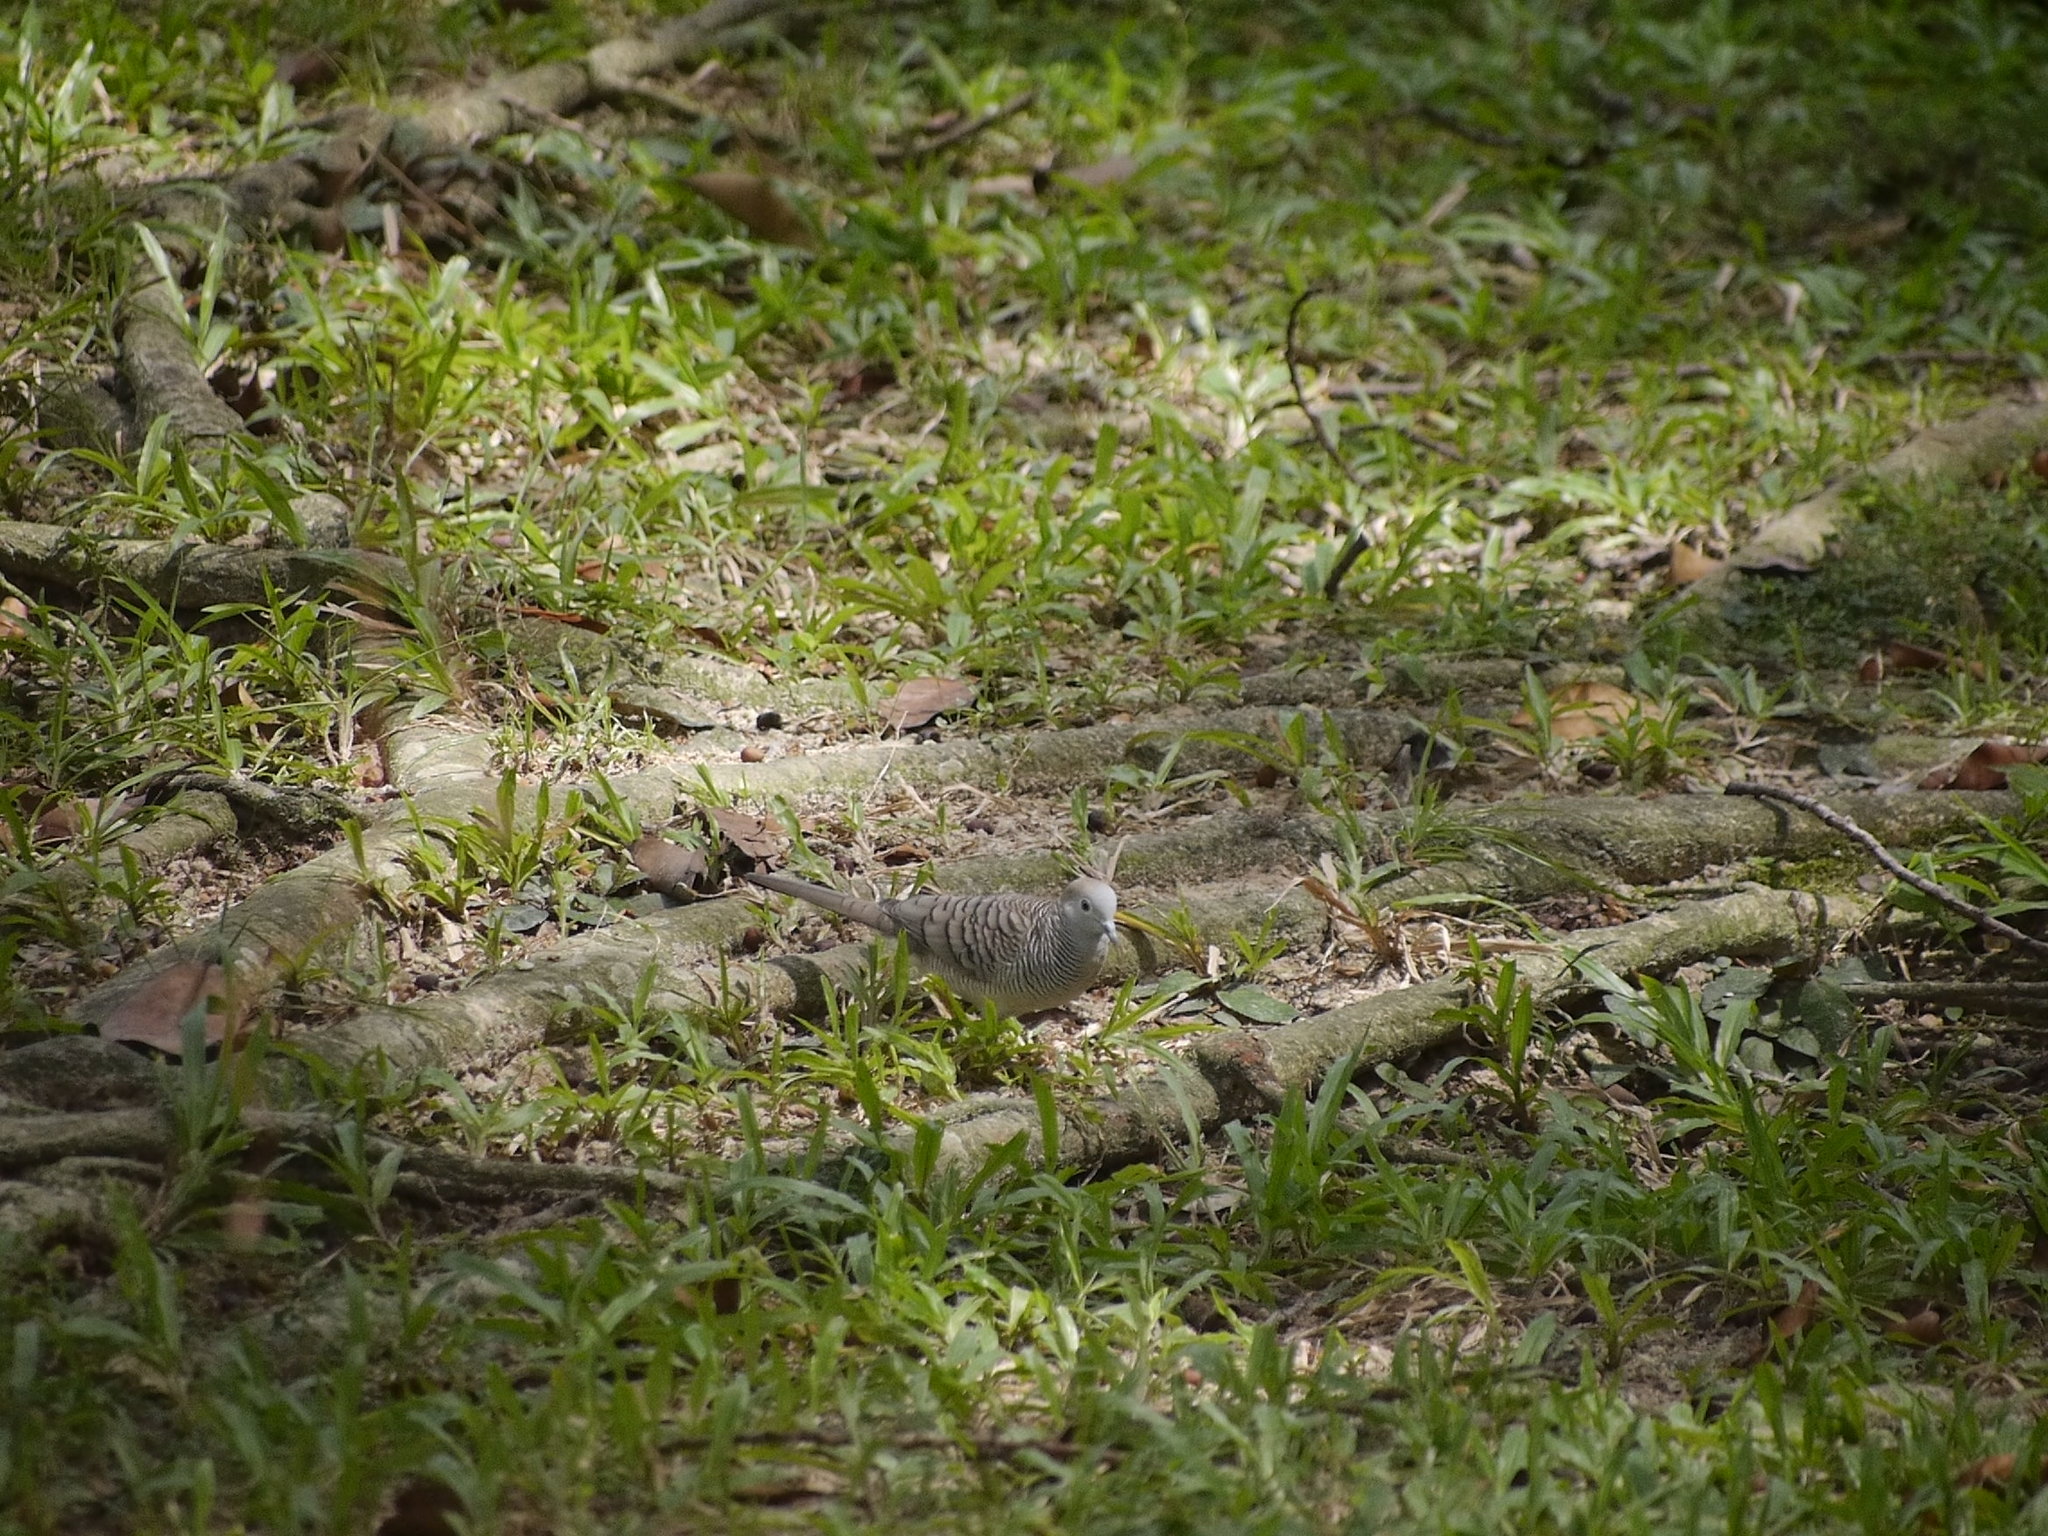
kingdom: Animalia
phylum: Chordata
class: Aves
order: Columbiformes
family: Columbidae
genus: Geopelia
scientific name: Geopelia striata
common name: Zebra dove
